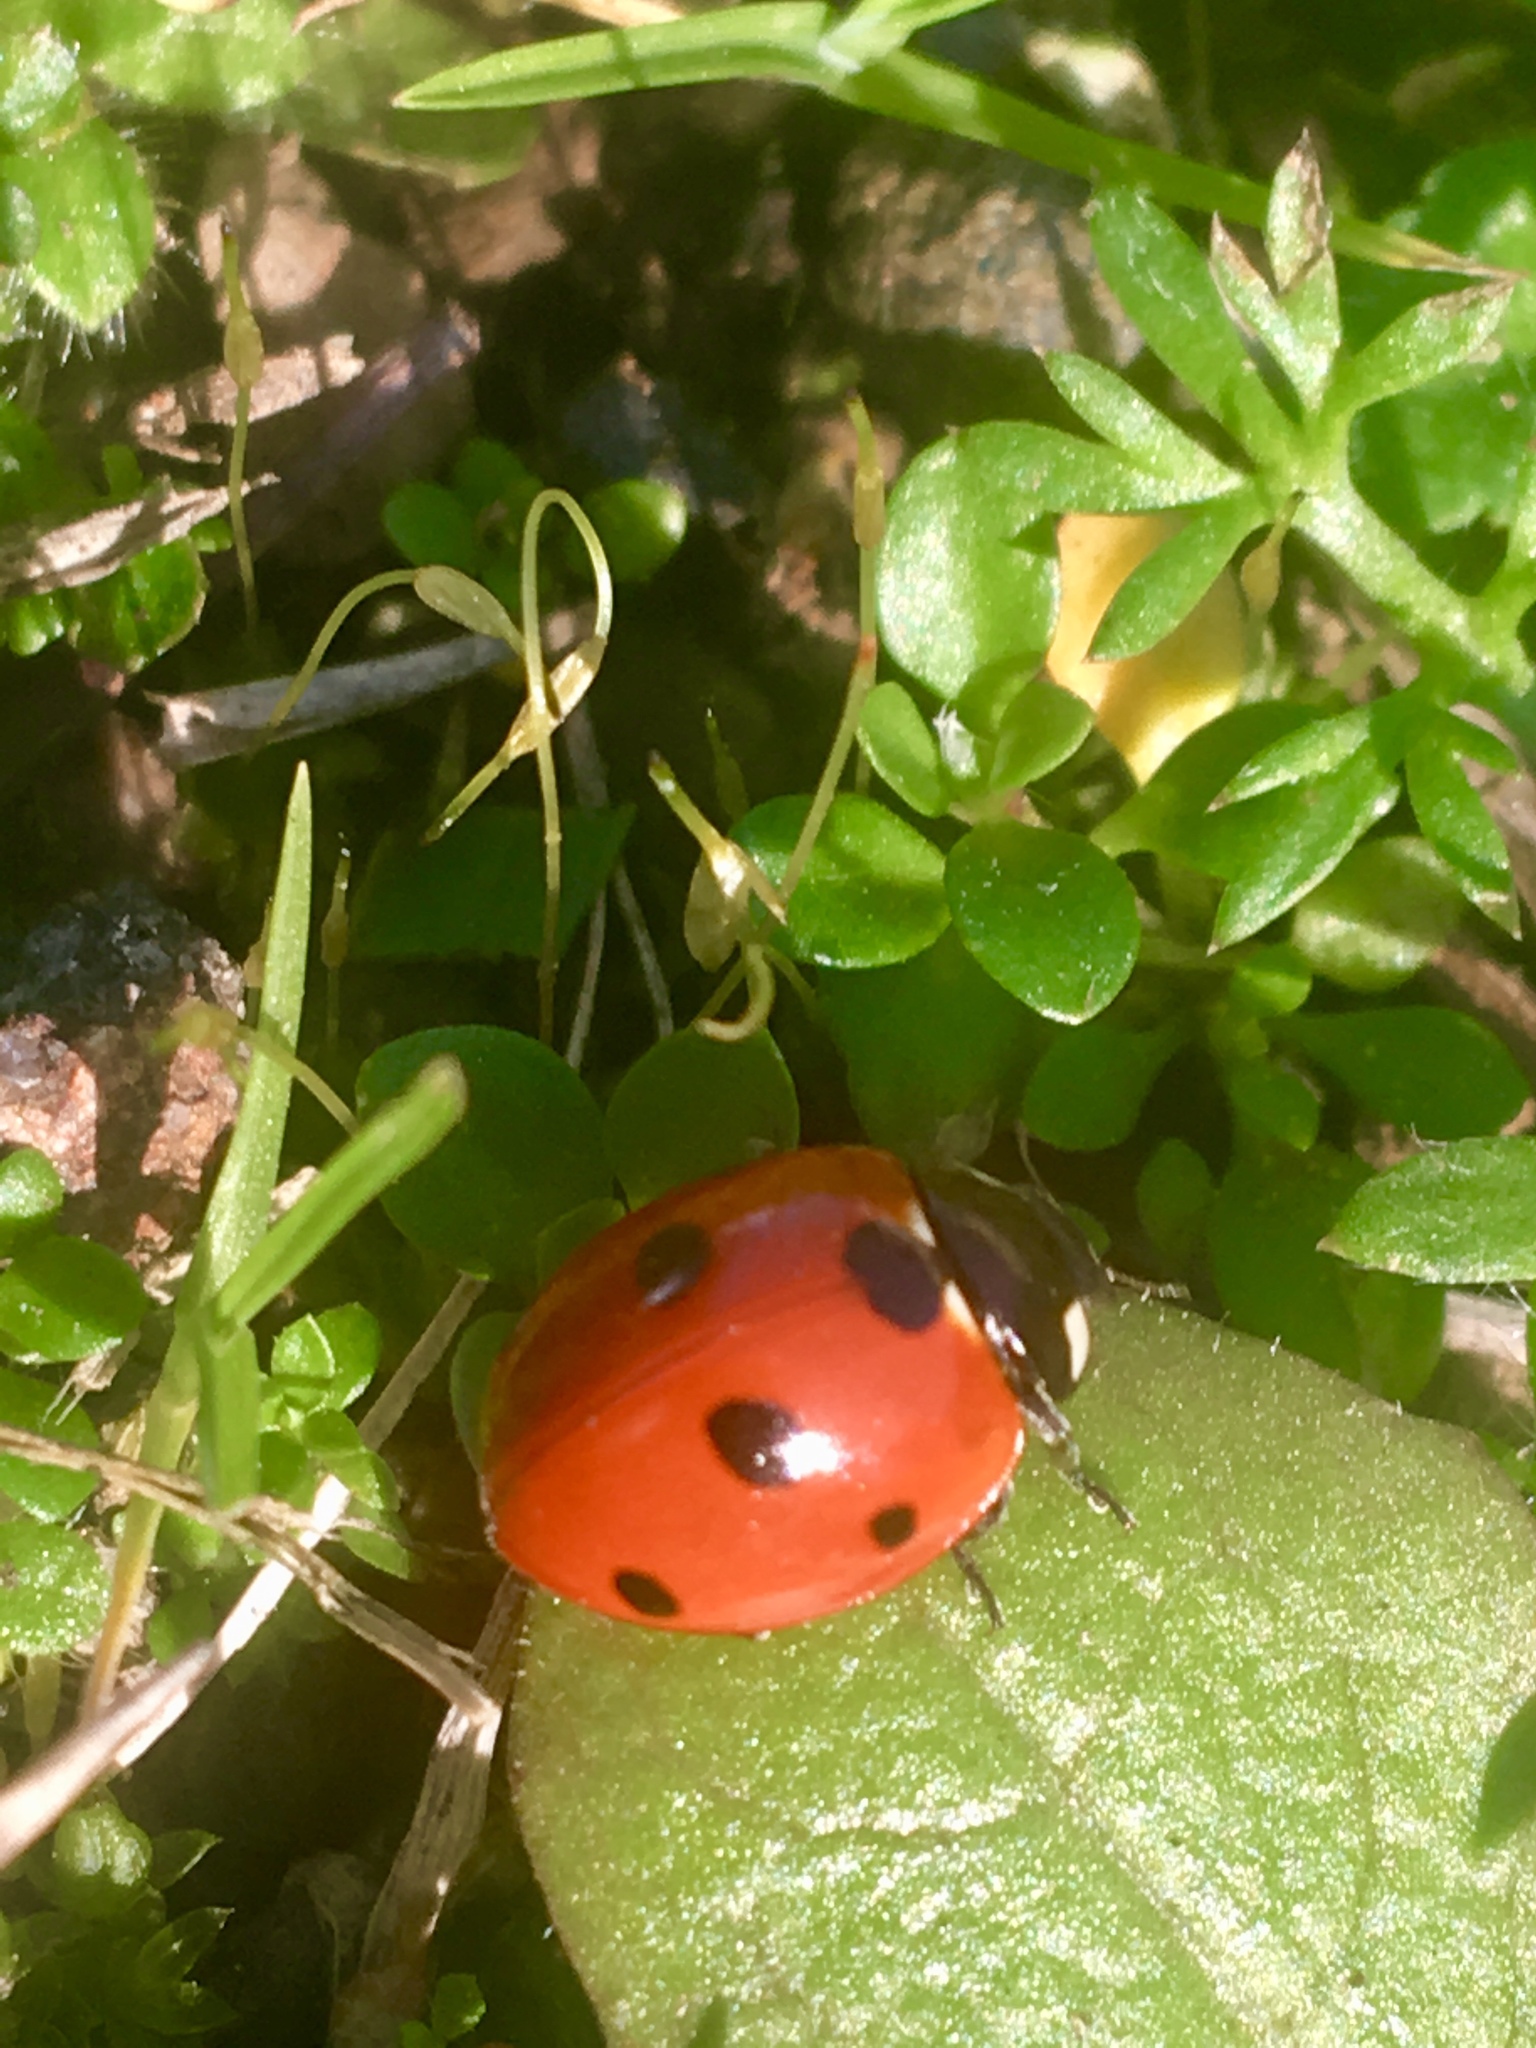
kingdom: Animalia
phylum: Arthropoda
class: Insecta
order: Coleoptera
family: Coccinellidae
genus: Coccinella
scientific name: Coccinella septempunctata
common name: Sevenspotted lady beetle
